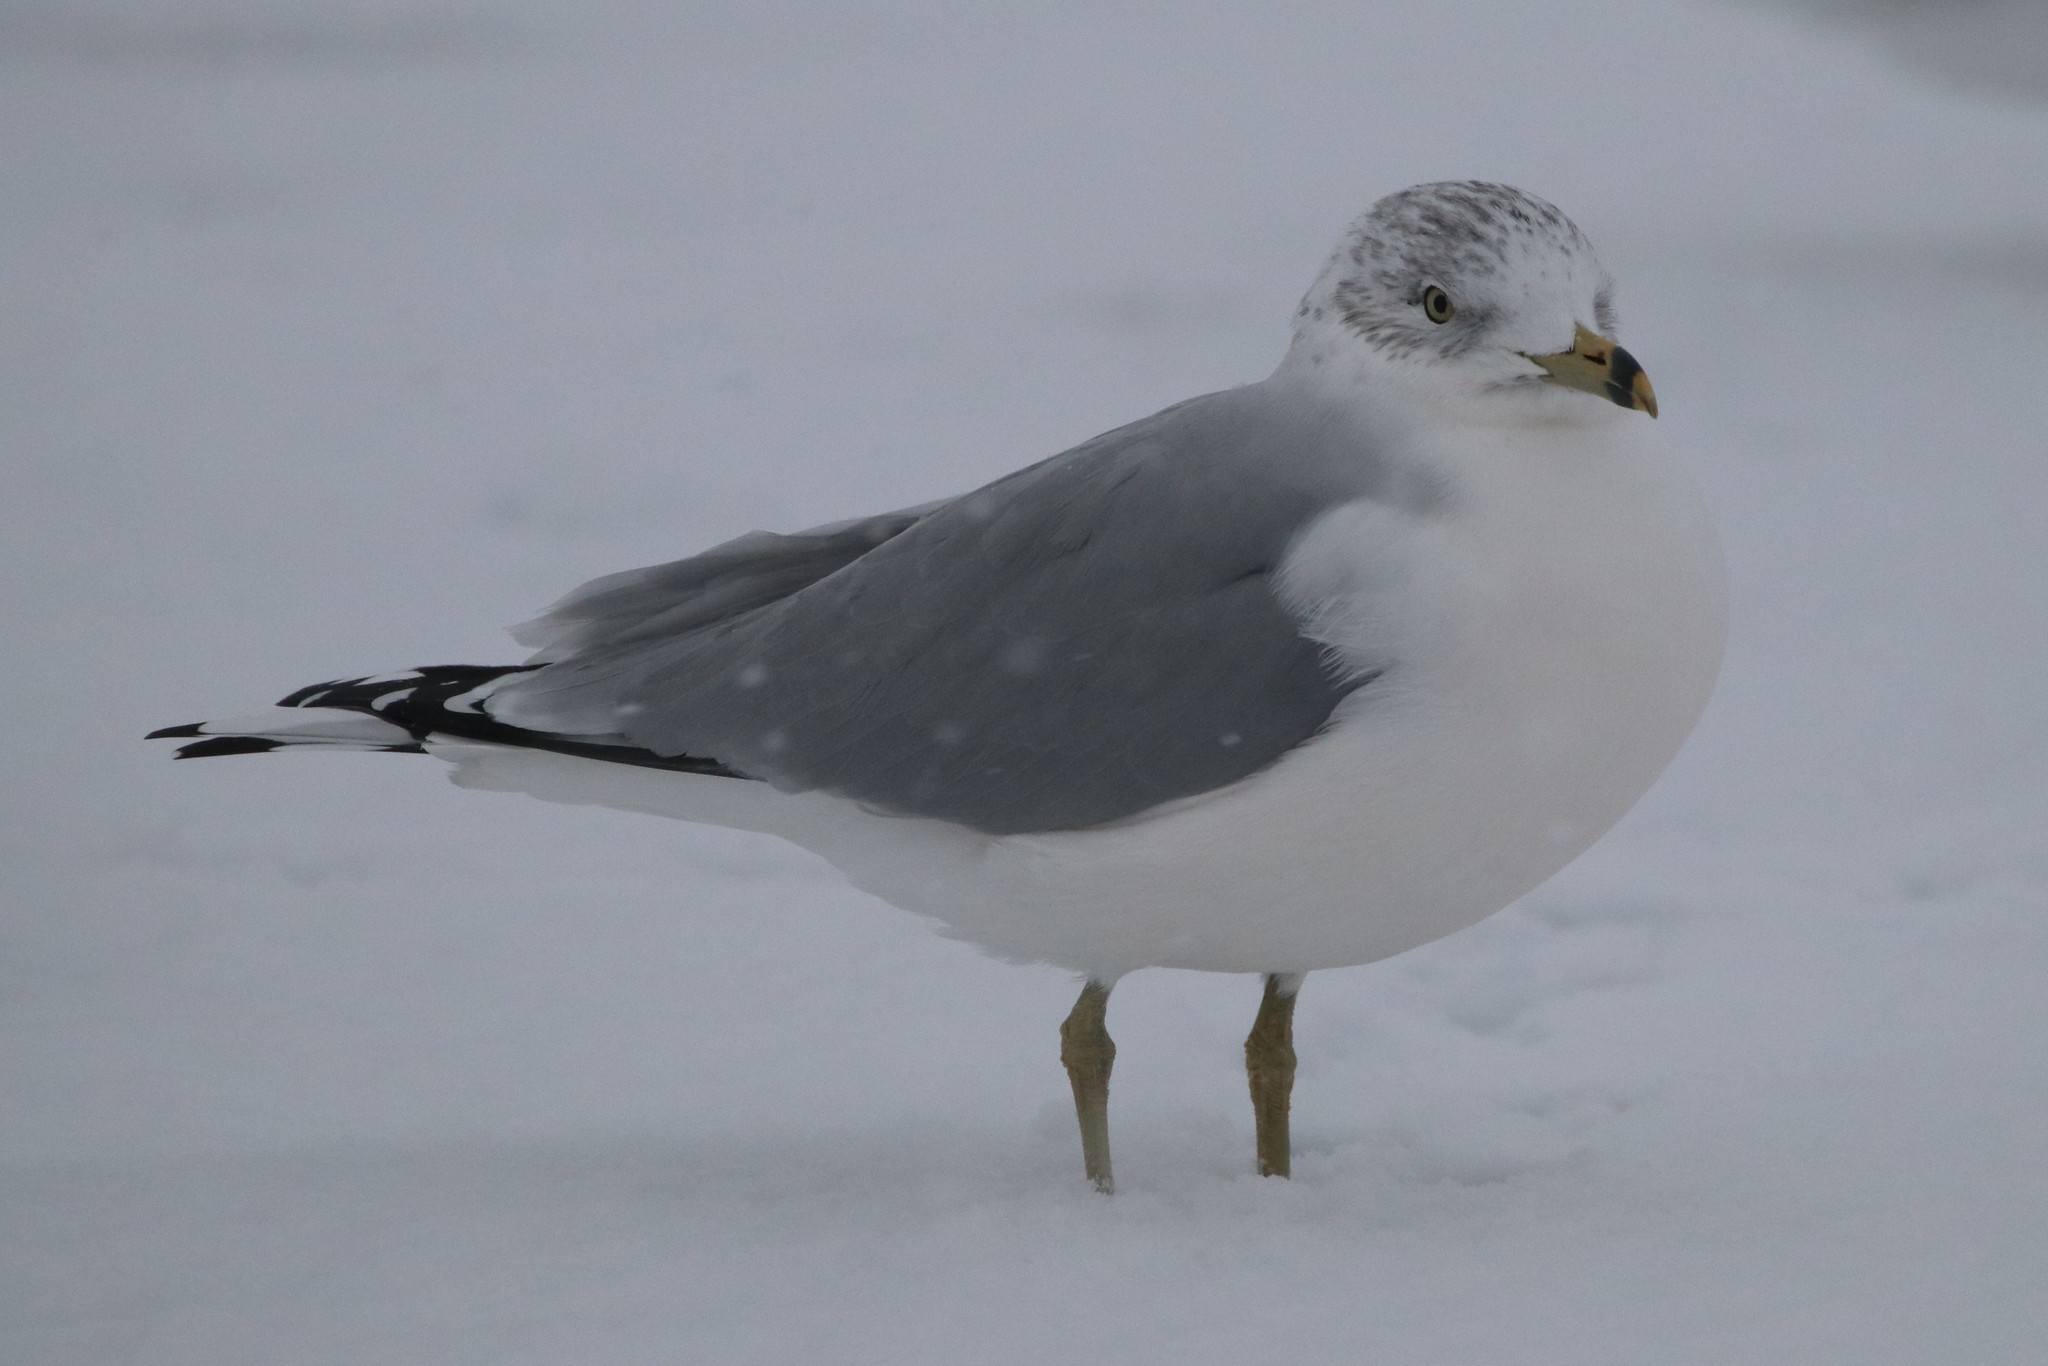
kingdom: Animalia
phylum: Chordata
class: Aves
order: Charadriiformes
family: Laridae
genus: Larus
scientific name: Larus delawarensis
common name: Ring-billed gull
